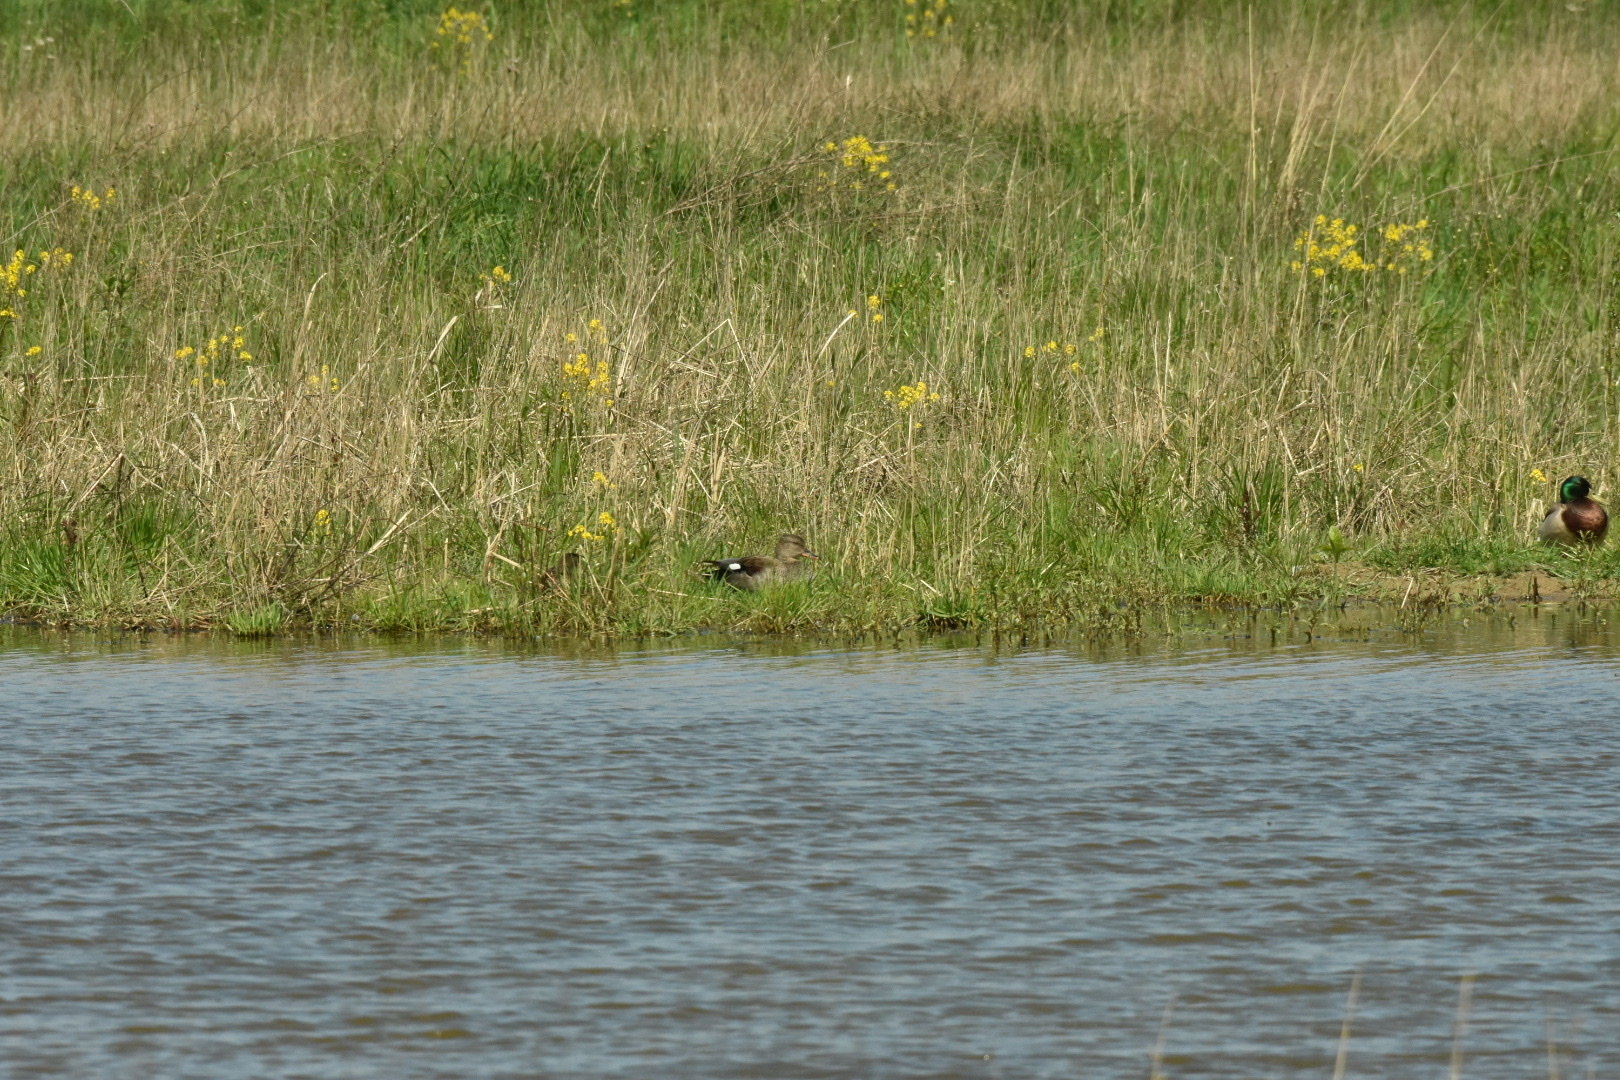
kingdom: Animalia
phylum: Chordata
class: Aves
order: Anseriformes
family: Anatidae
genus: Mareca
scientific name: Mareca strepera
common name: Gadwall
